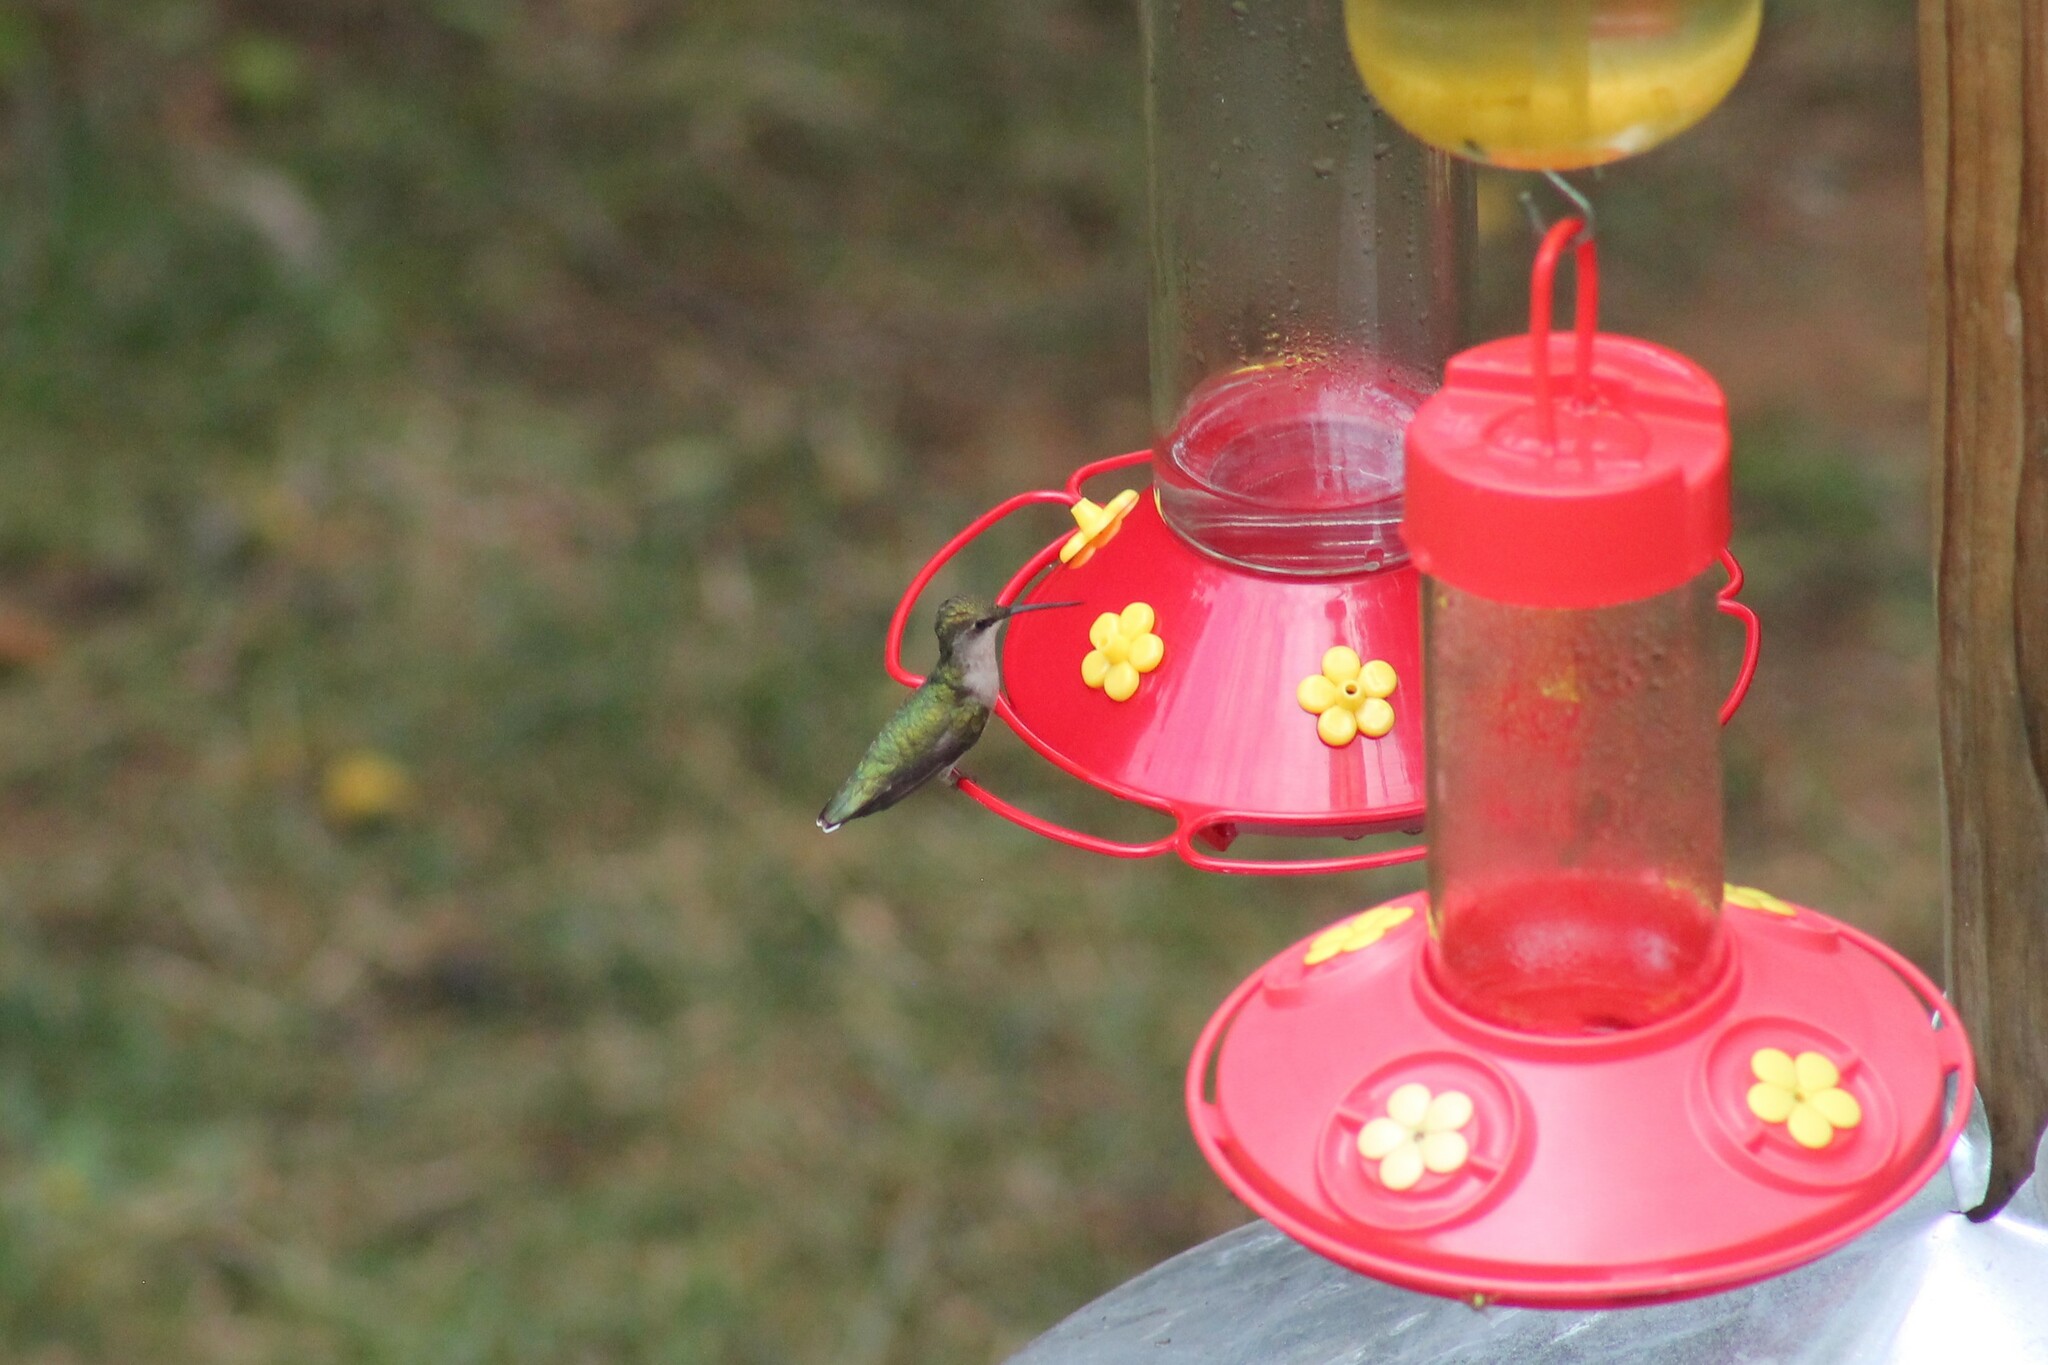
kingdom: Animalia
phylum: Chordata
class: Aves
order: Apodiformes
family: Trochilidae
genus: Archilochus
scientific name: Archilochus colubris
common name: Ruby-throated hummingbird
